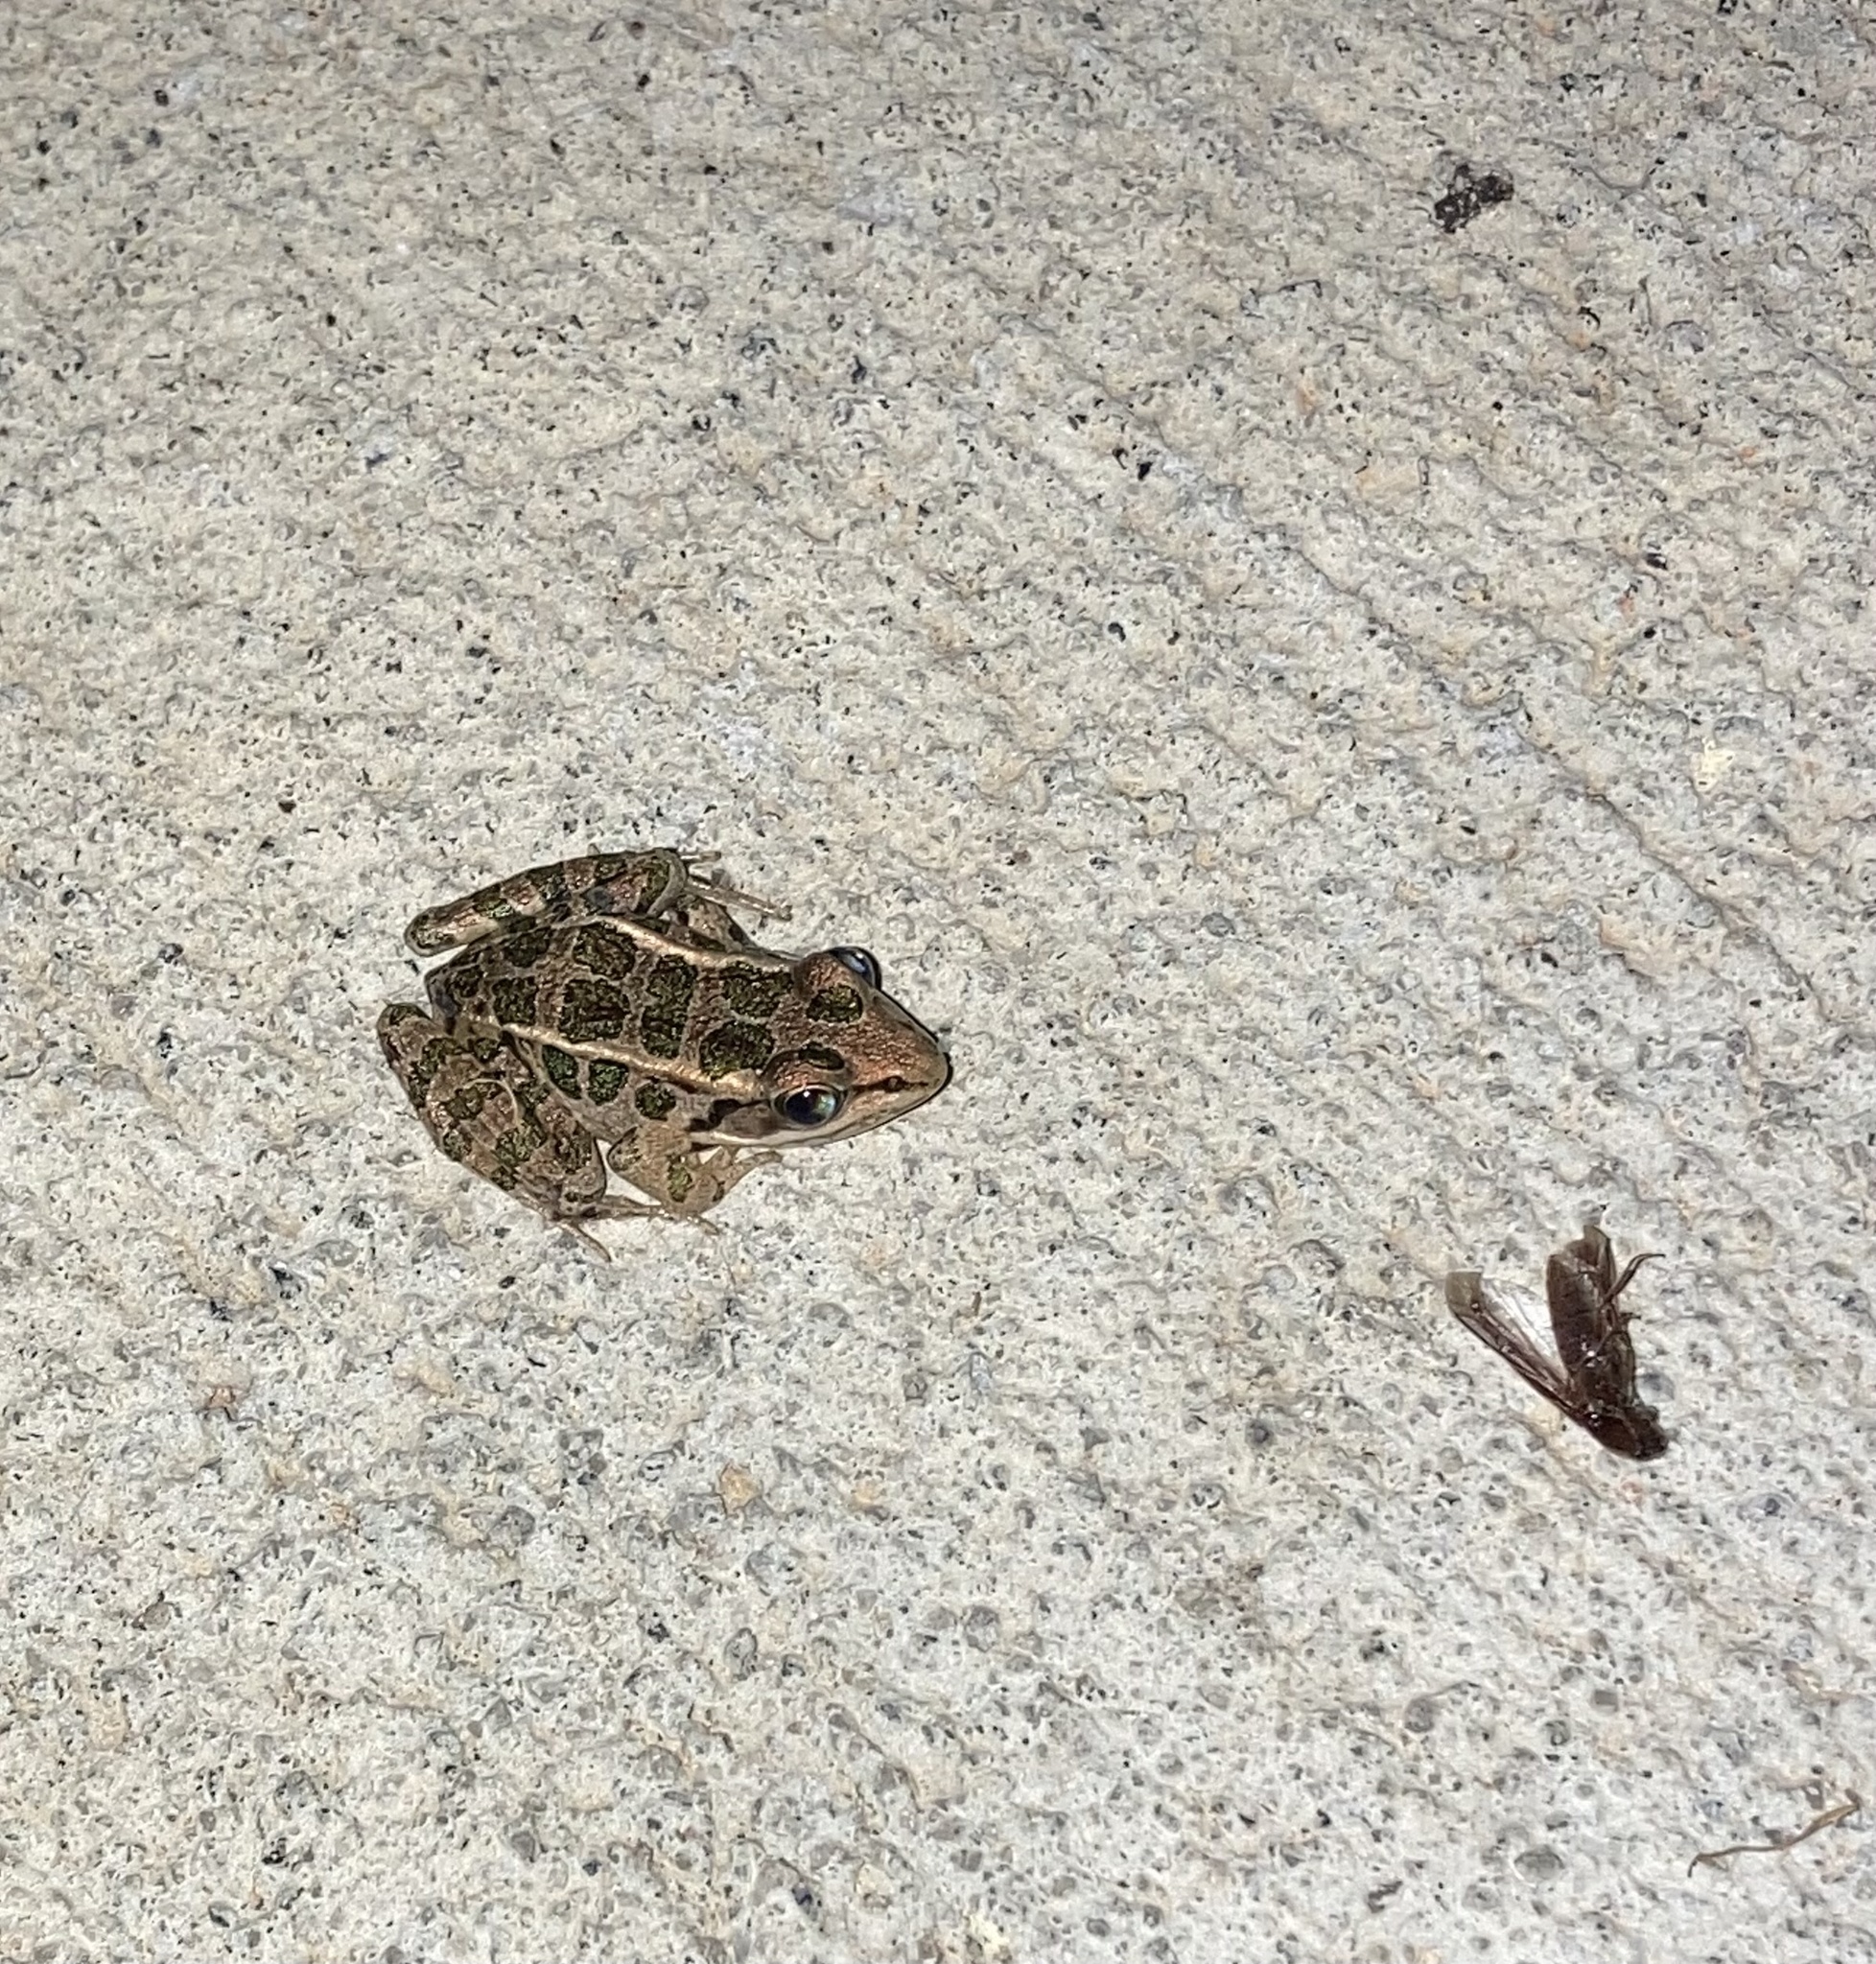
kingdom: Animalia
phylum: Chordata
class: Amphibia
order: Anura
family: Ranidae
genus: Lithobates
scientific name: Lithobates palustris
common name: Pickerel frog
